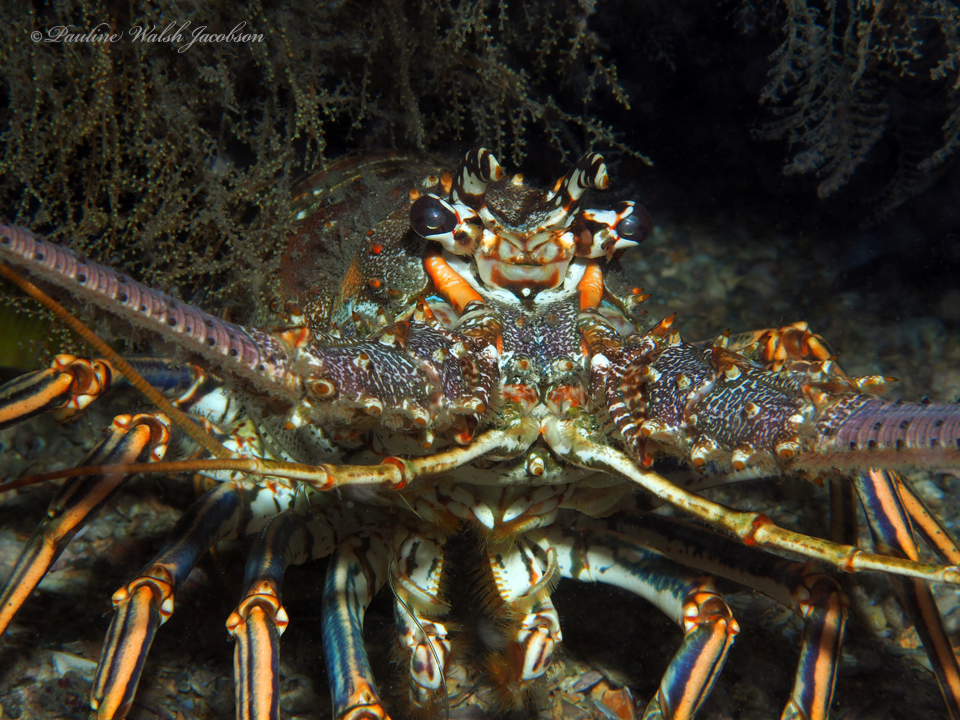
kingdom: Animalia
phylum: Arthropoda
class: Malacostraca
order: Decapoda
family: Palinuridae
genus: Panulirus
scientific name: Panulirus argus
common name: Caribbean spiny lobster
